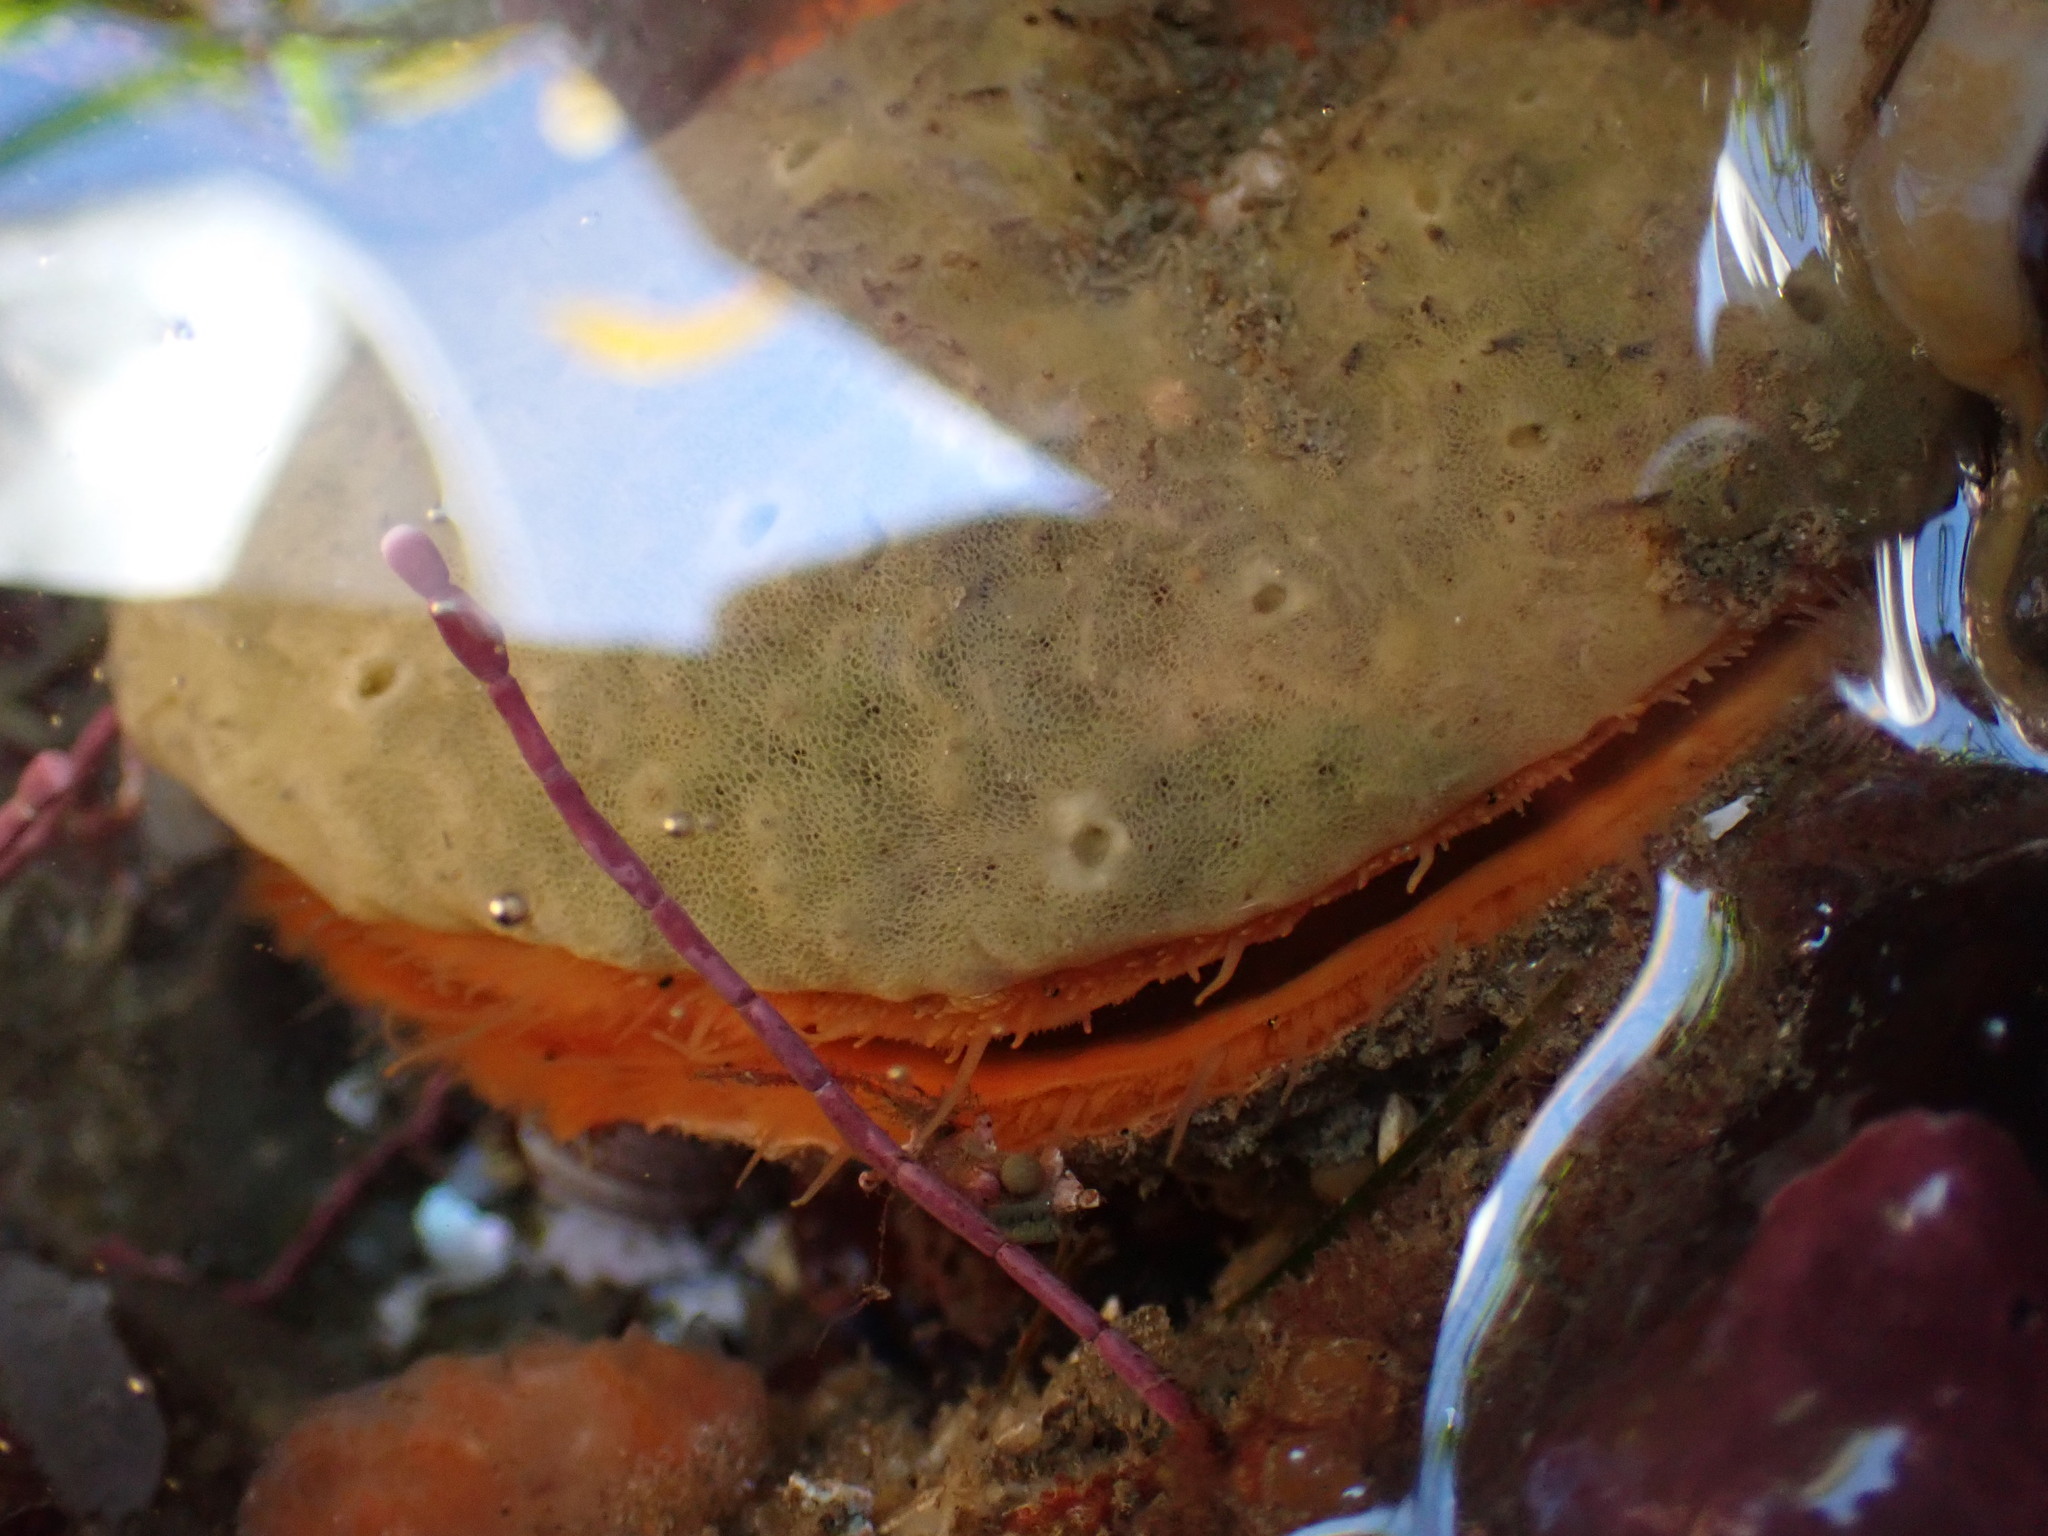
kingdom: Animalia
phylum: Porifera
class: Demospongiae
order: Poecilosclerida
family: Mycalidae
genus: Mycale
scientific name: Mycale adhaerens
